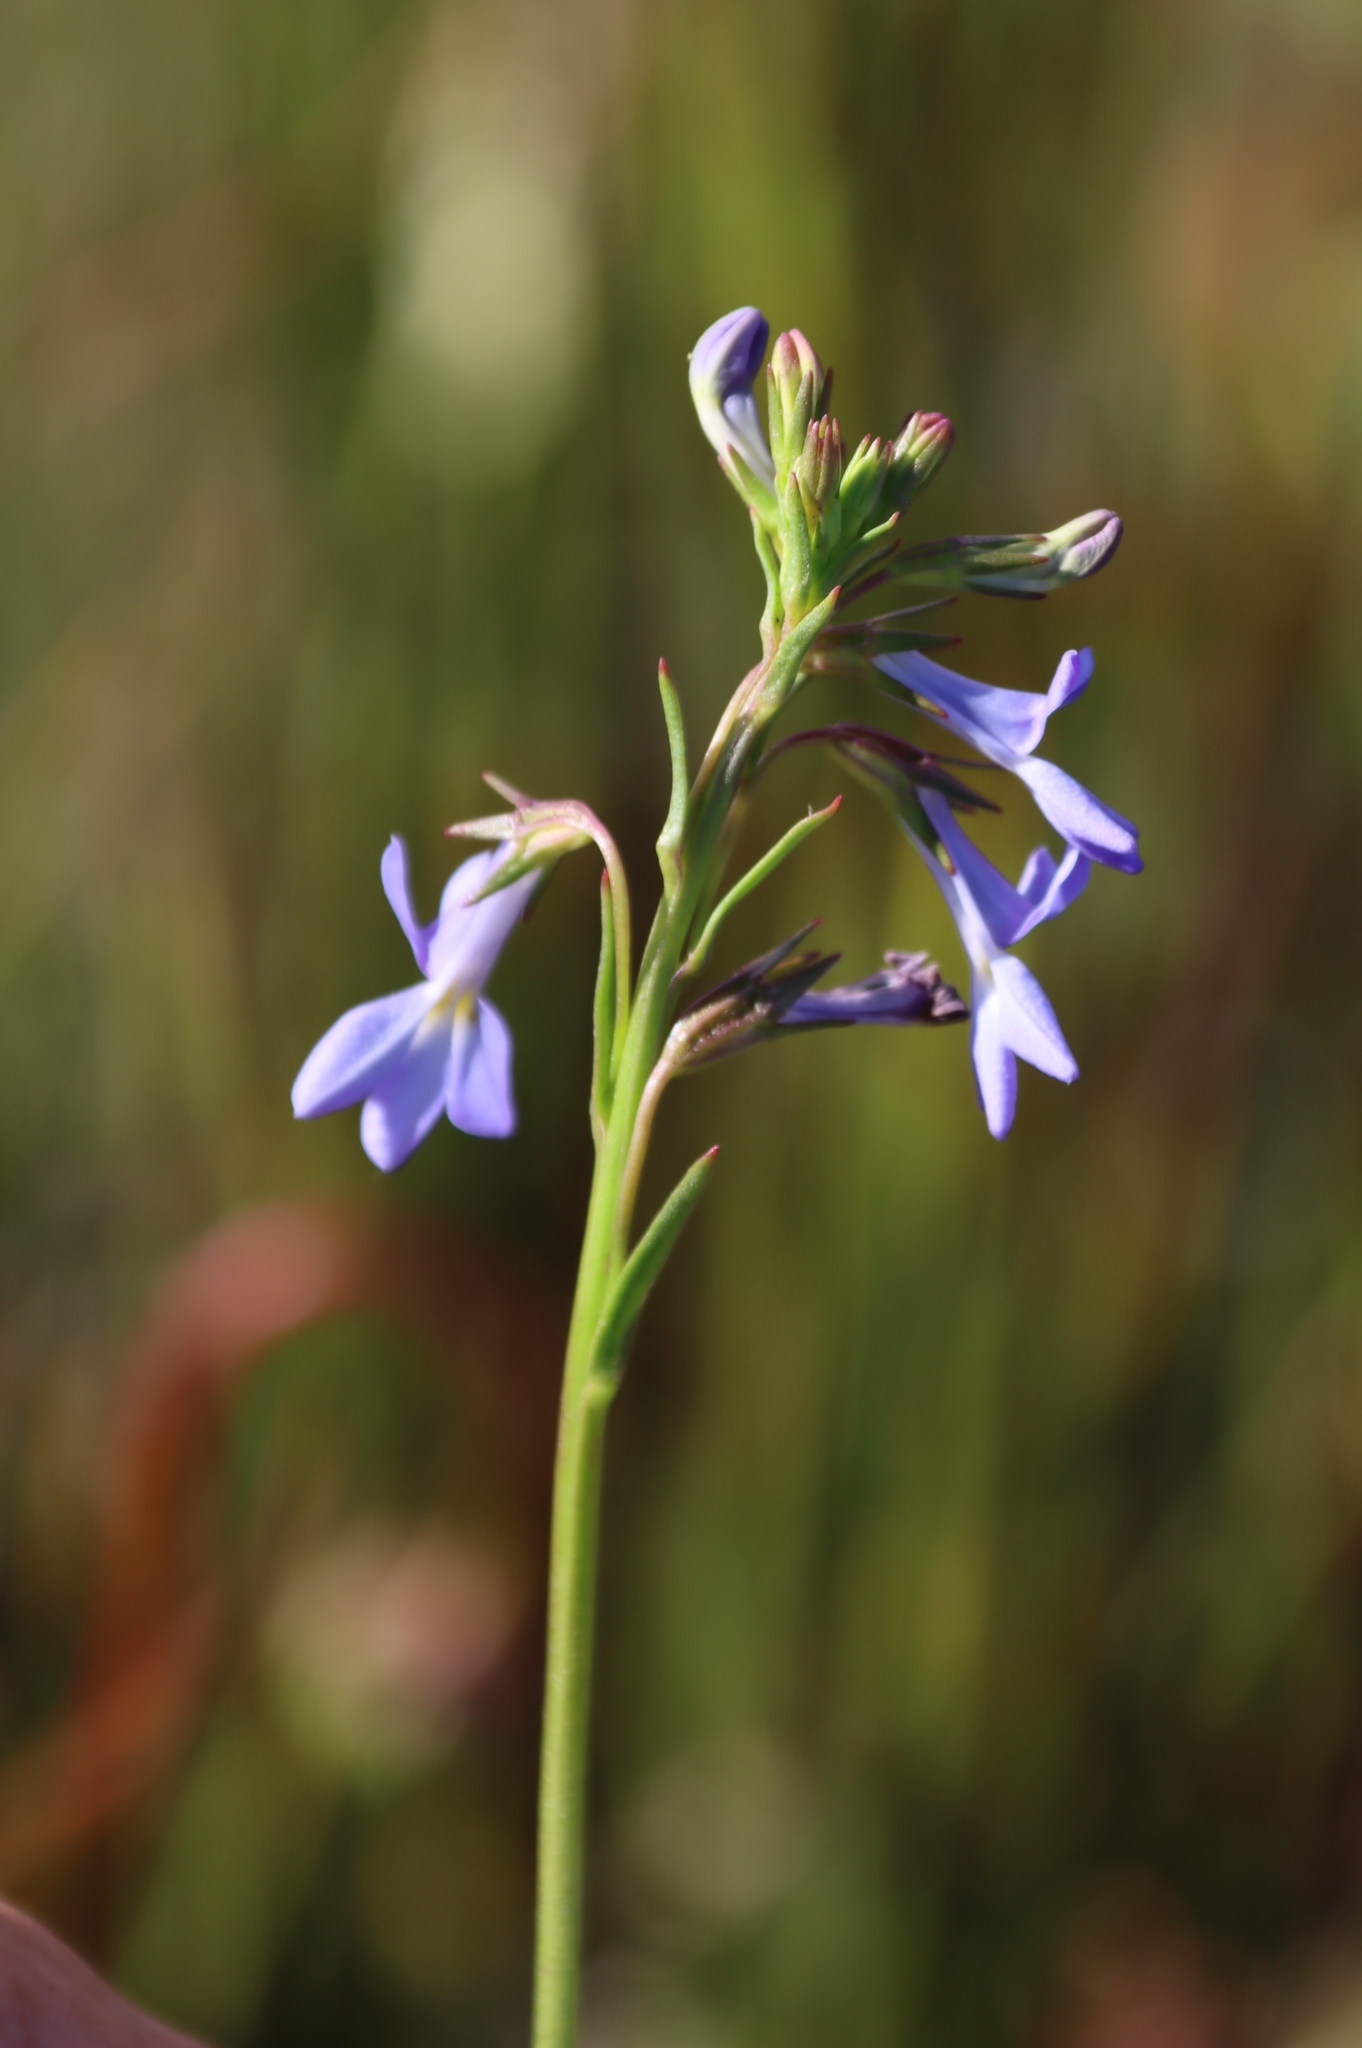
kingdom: Plantae
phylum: Tracheophyta
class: Magnoliopsida
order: Asterales
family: Campanulaceae
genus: Lobelia
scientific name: Lobelia comosa
